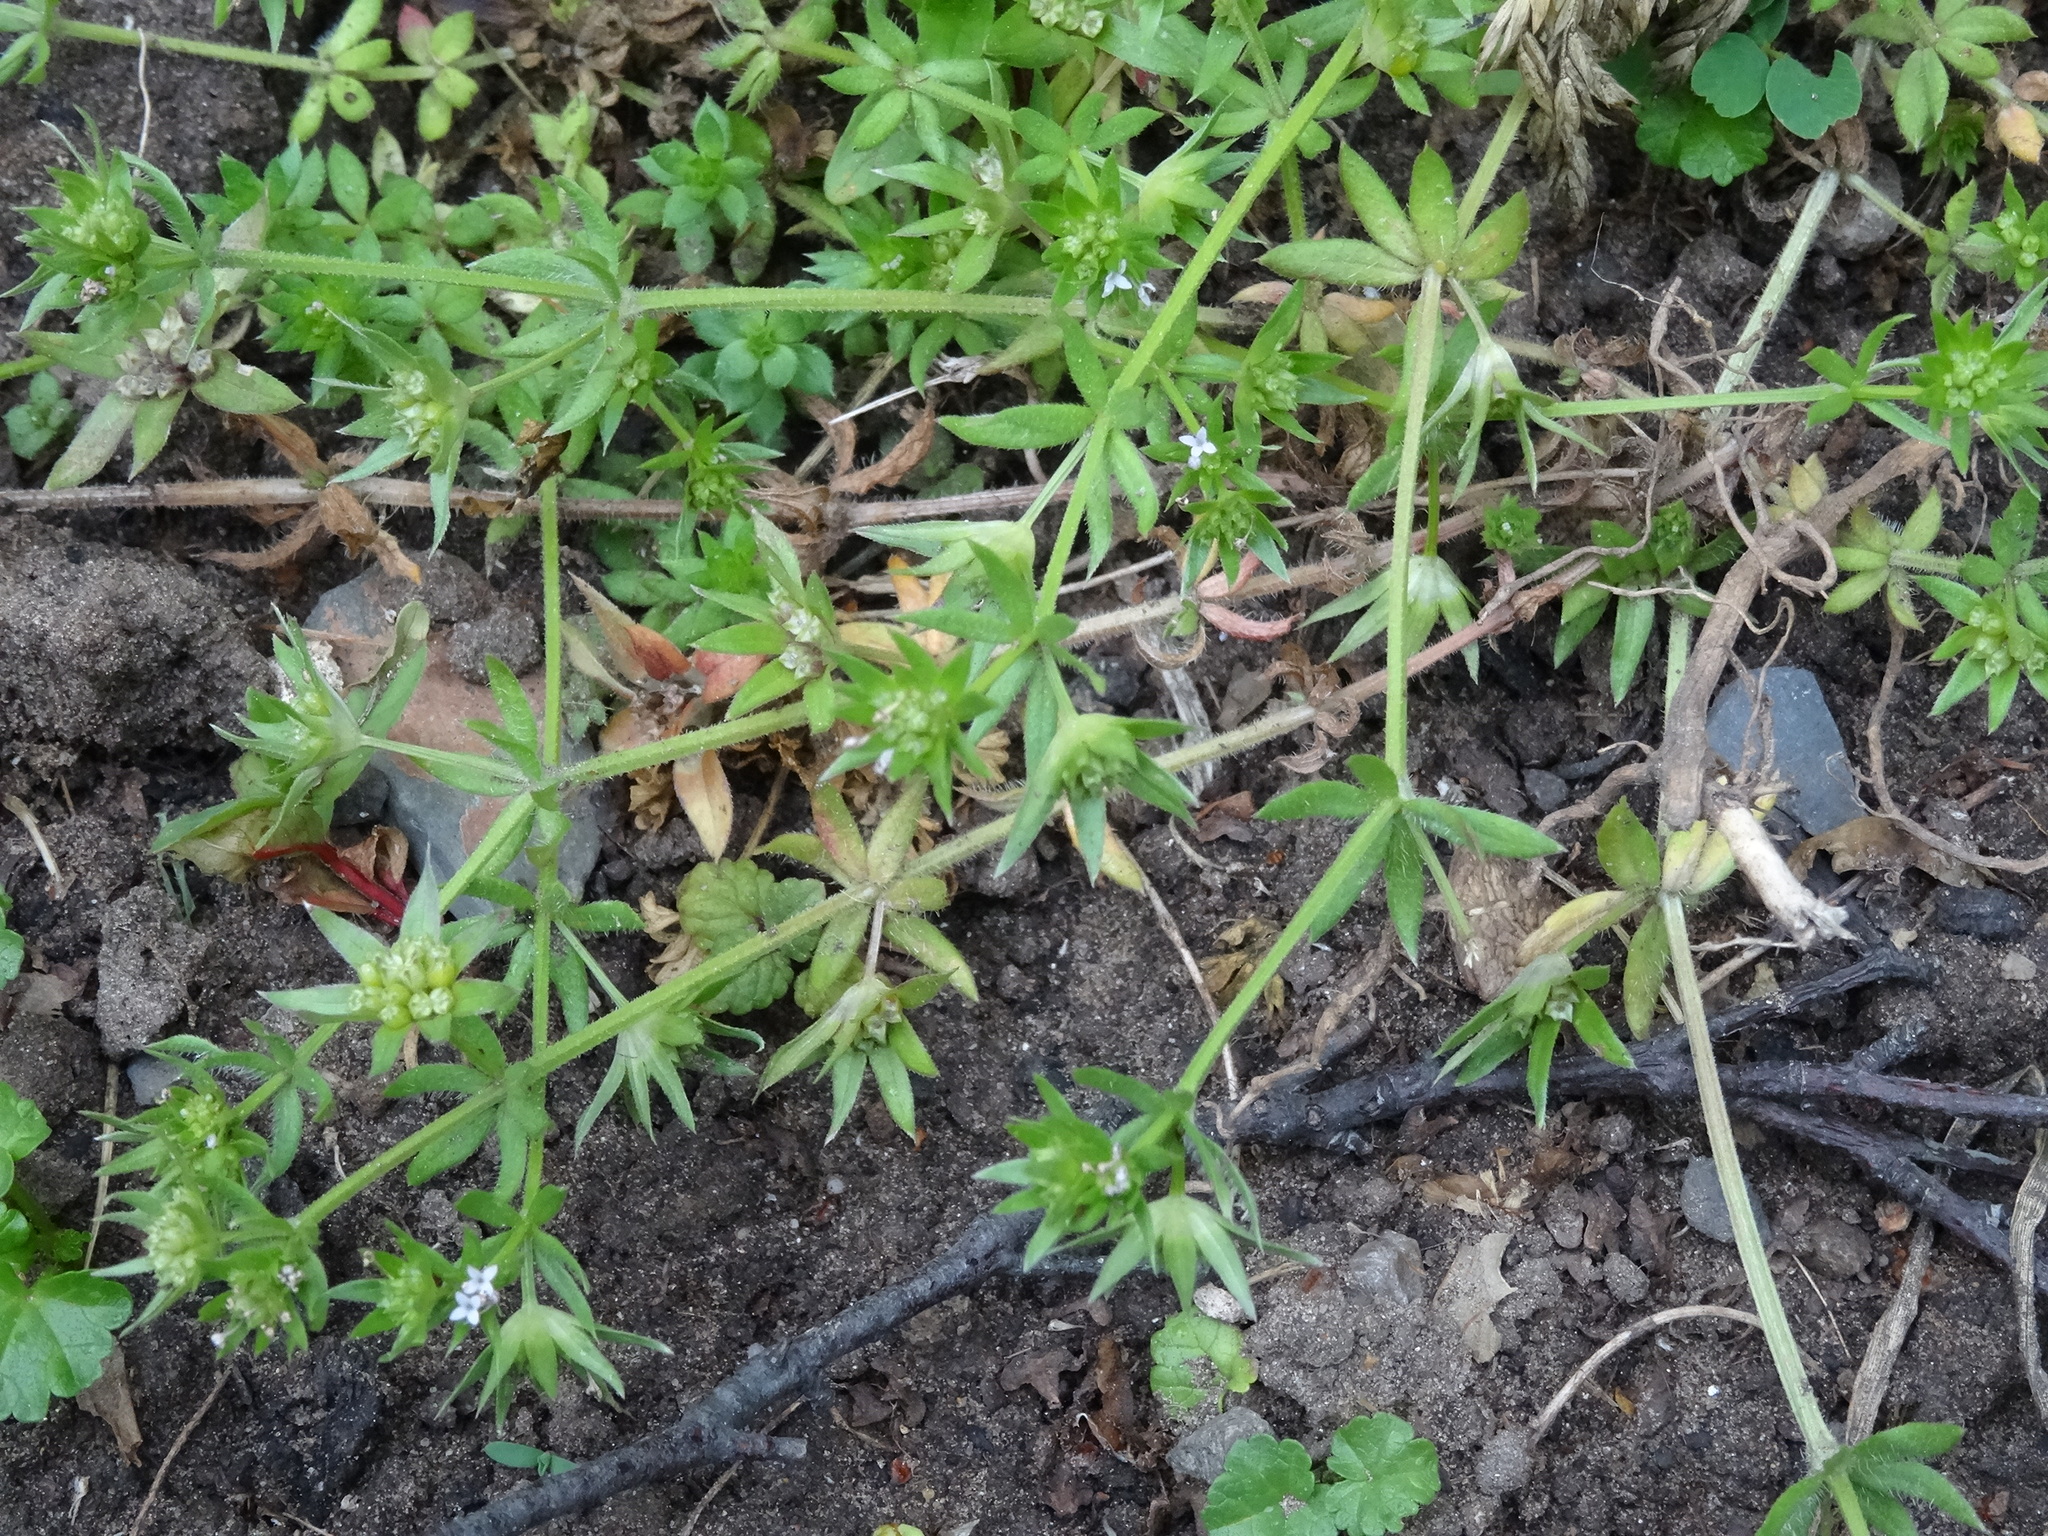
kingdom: Plantae
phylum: Tracheophyta
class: Magnoliopsida
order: Gentianales
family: Rubiaceae
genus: Sherardia
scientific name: Sherardia arvensis
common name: Field madder
